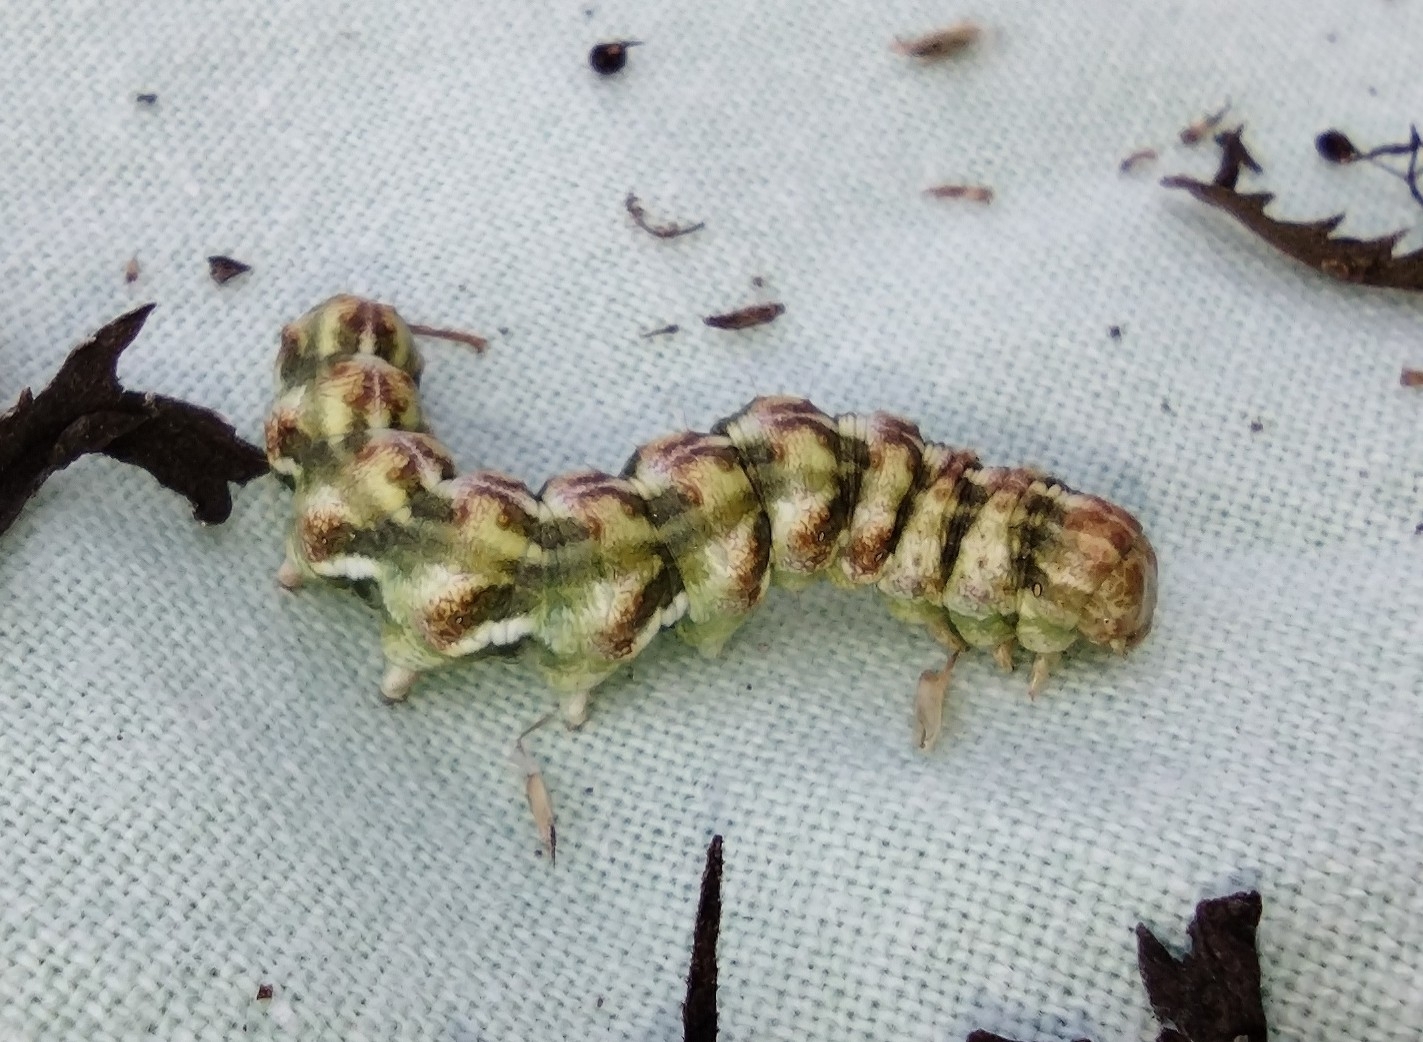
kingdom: Animalia
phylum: Arthropoda
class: Insecta
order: Lepidoptera
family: Noctuidae
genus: Cucullia
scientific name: Cucullia absinthii
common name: Wormwood
